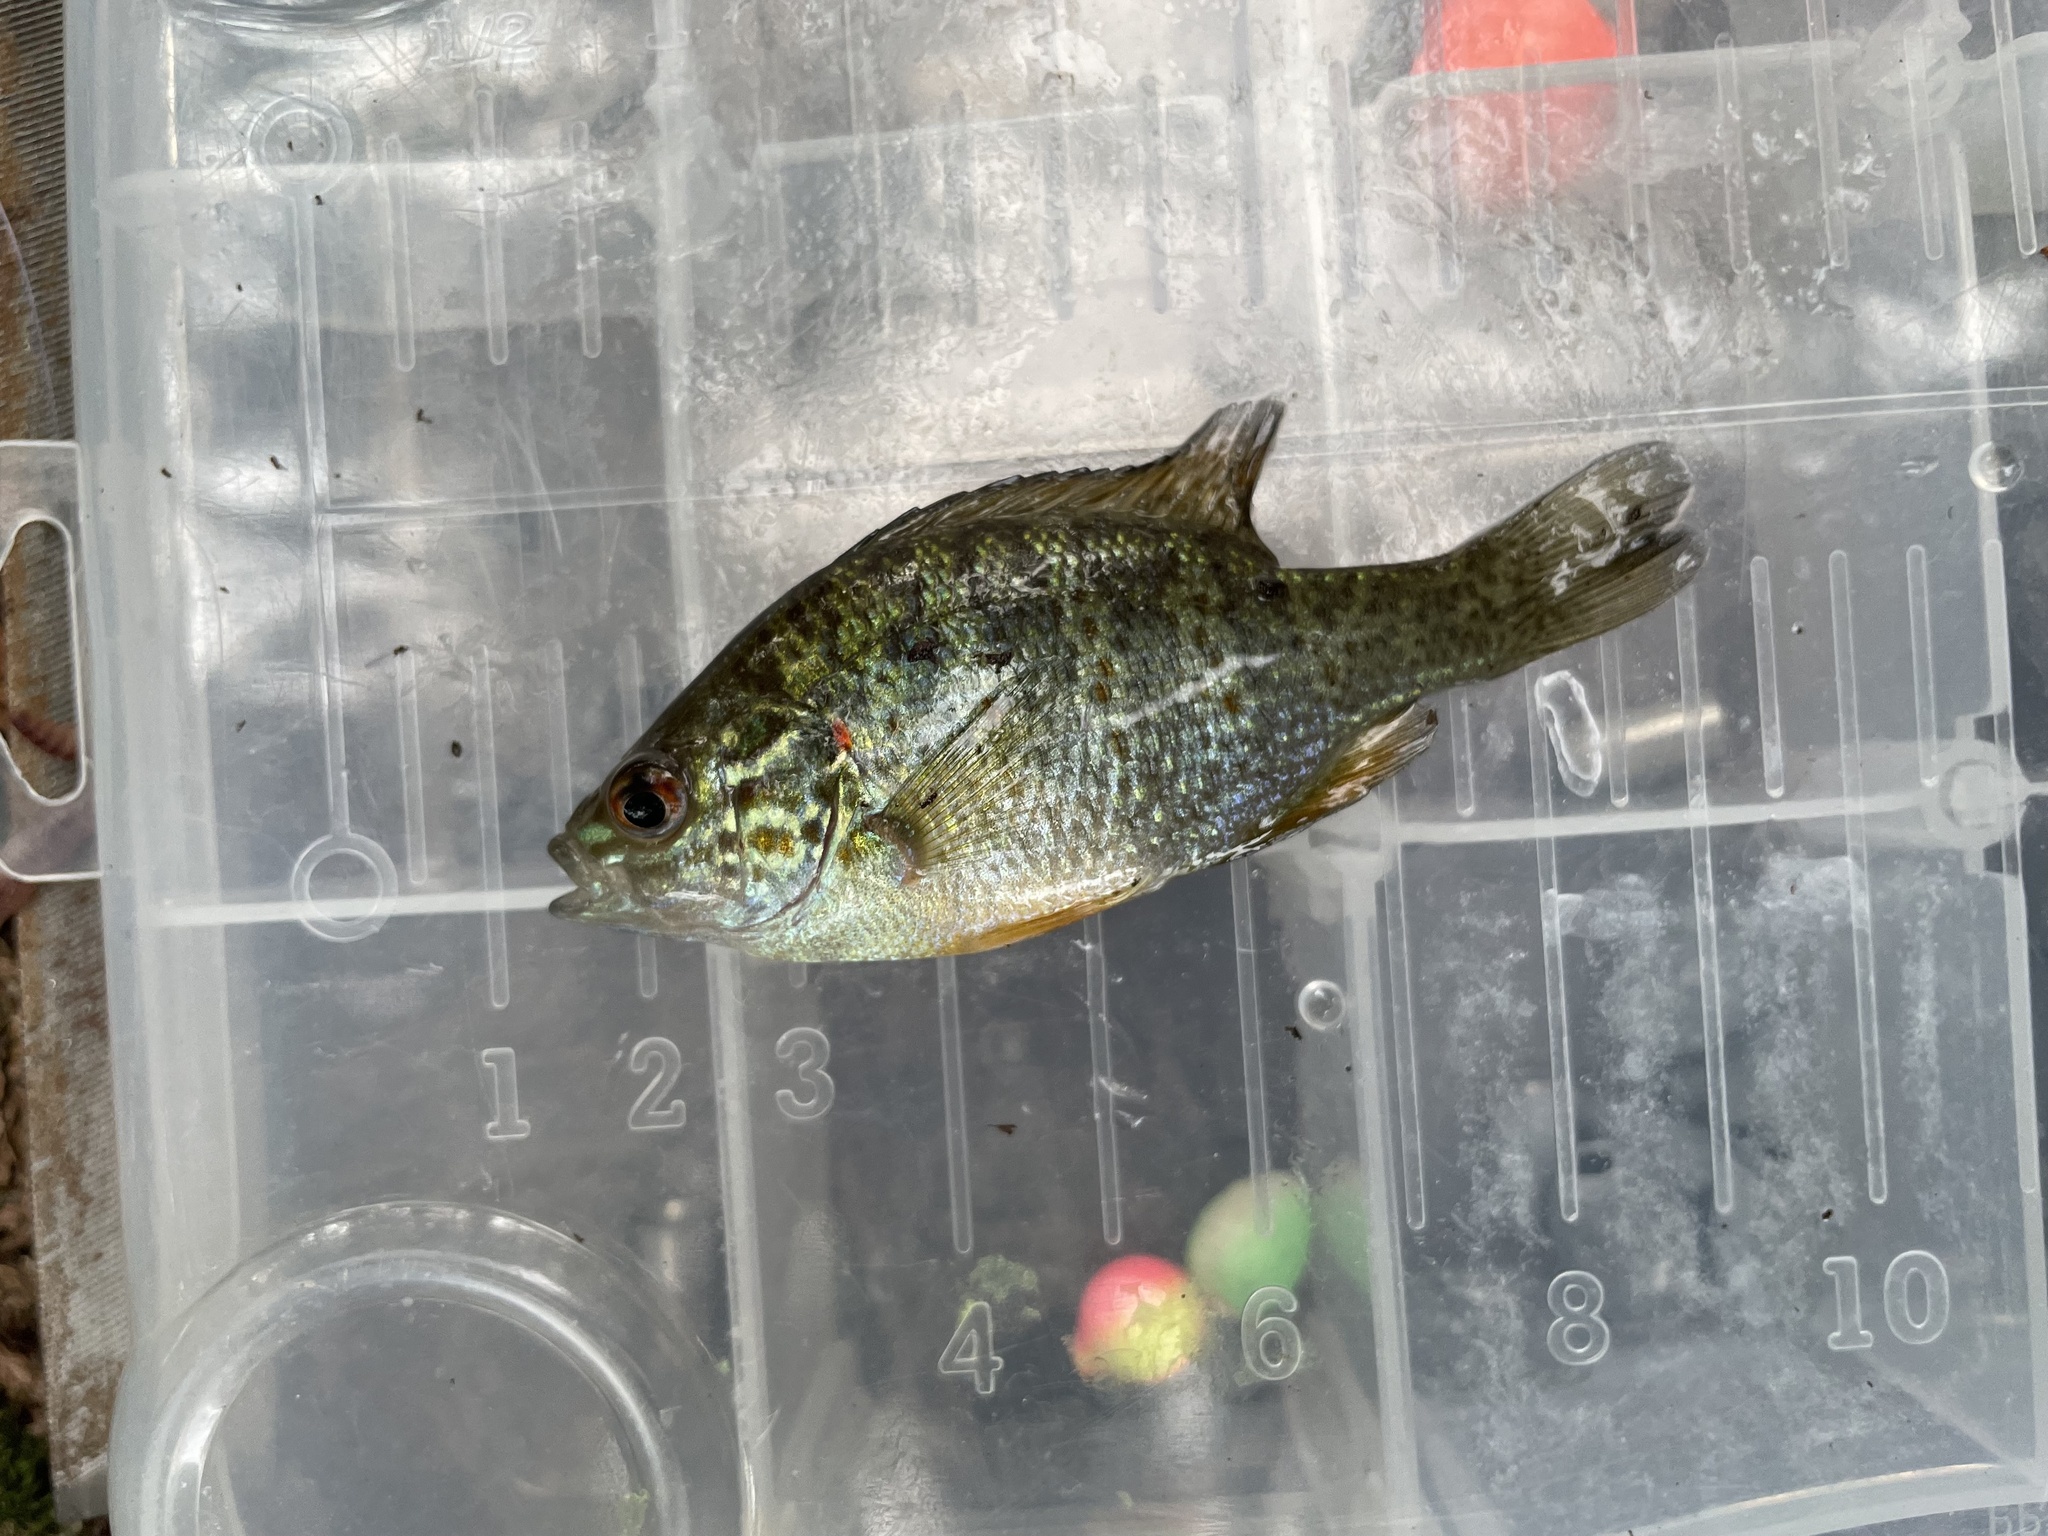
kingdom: Animalia
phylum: Chordata
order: Perciformes
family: Centrarchidae
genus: Lepomis
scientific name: Lepomis gibbosus
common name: Pumpkinseed
